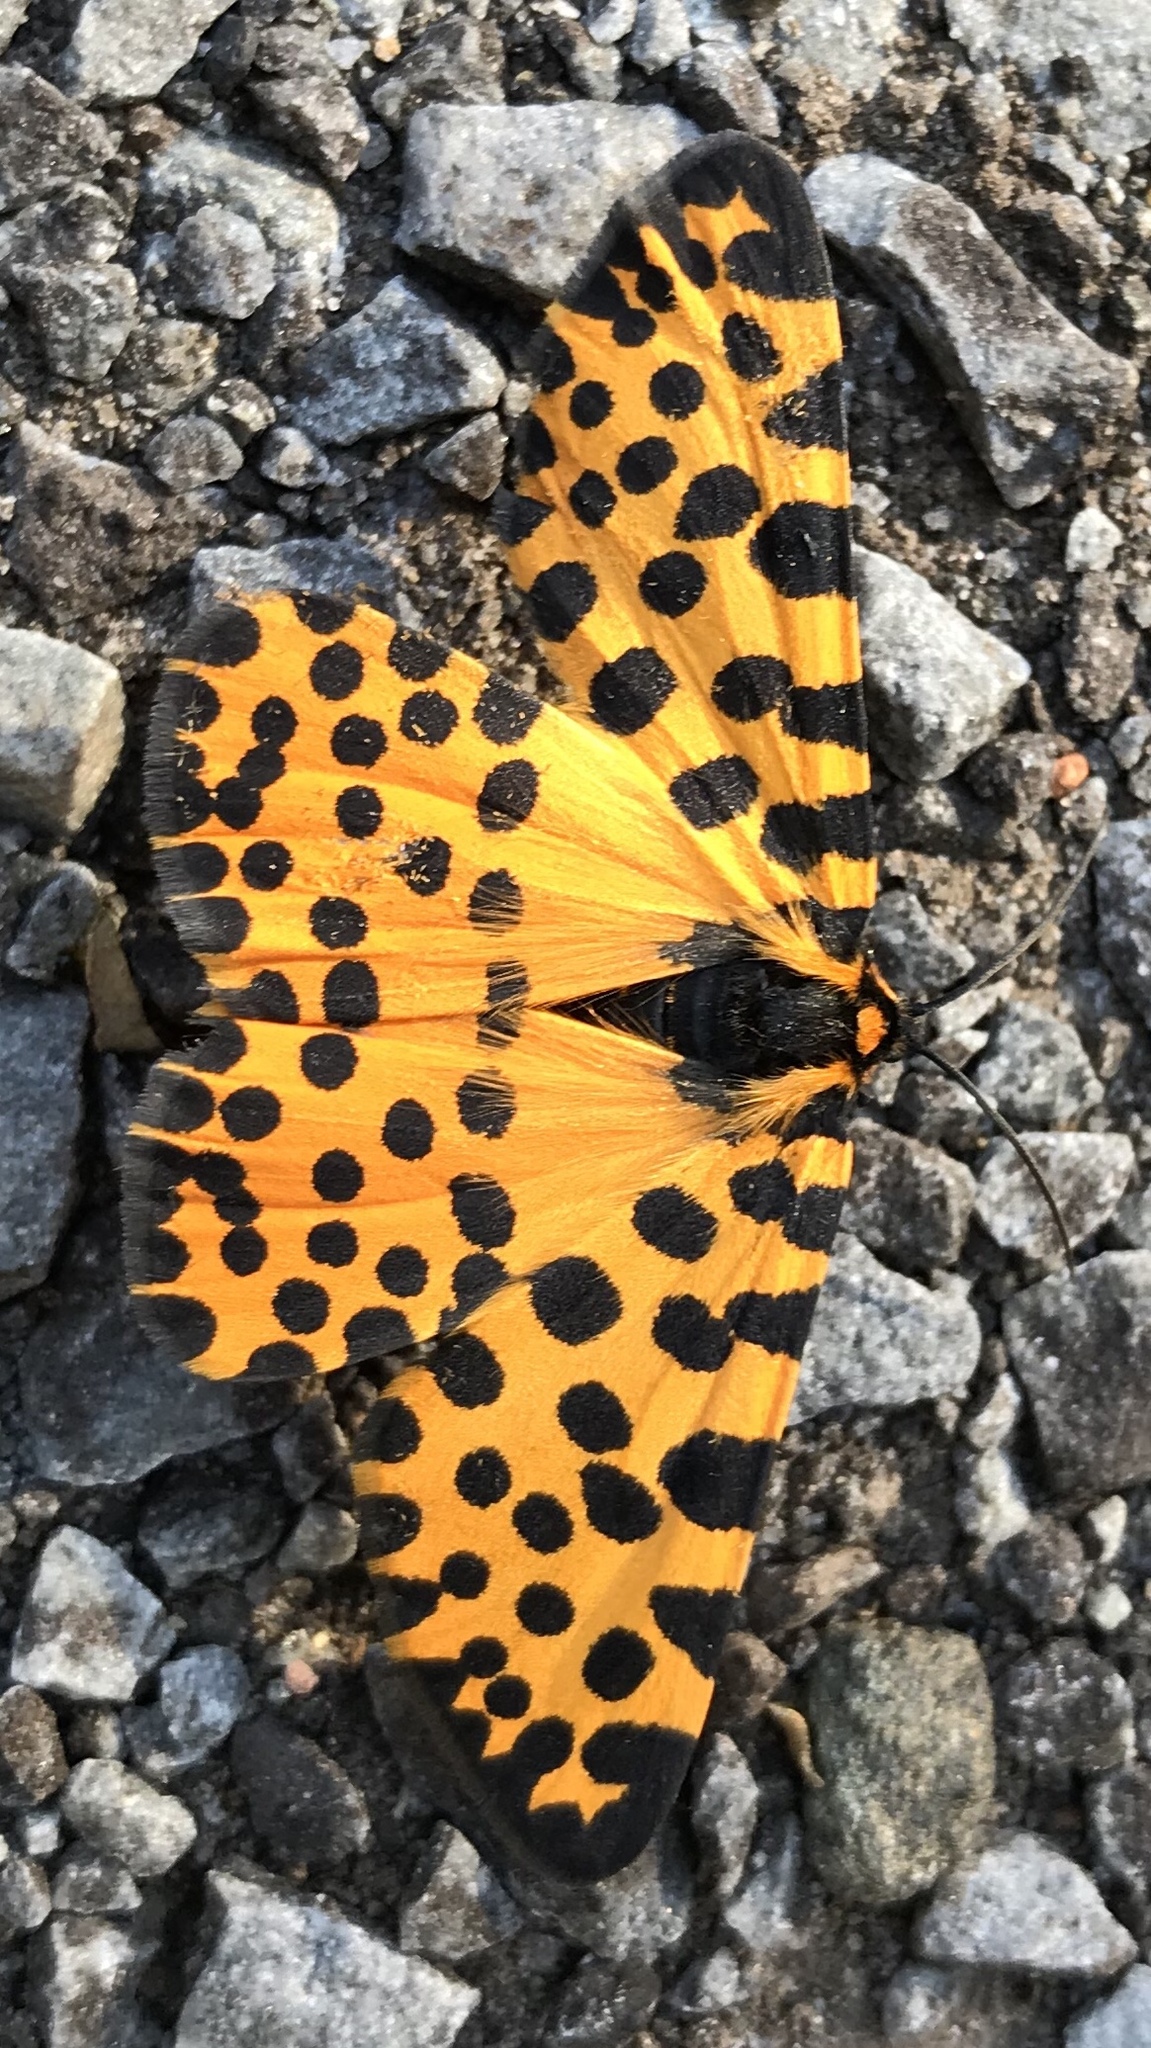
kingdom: Animalia
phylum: Arthropoda
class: Insecta
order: Lepidoptera
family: Geometridae
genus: Zerenopsis
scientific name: Zerenopsis lepida
